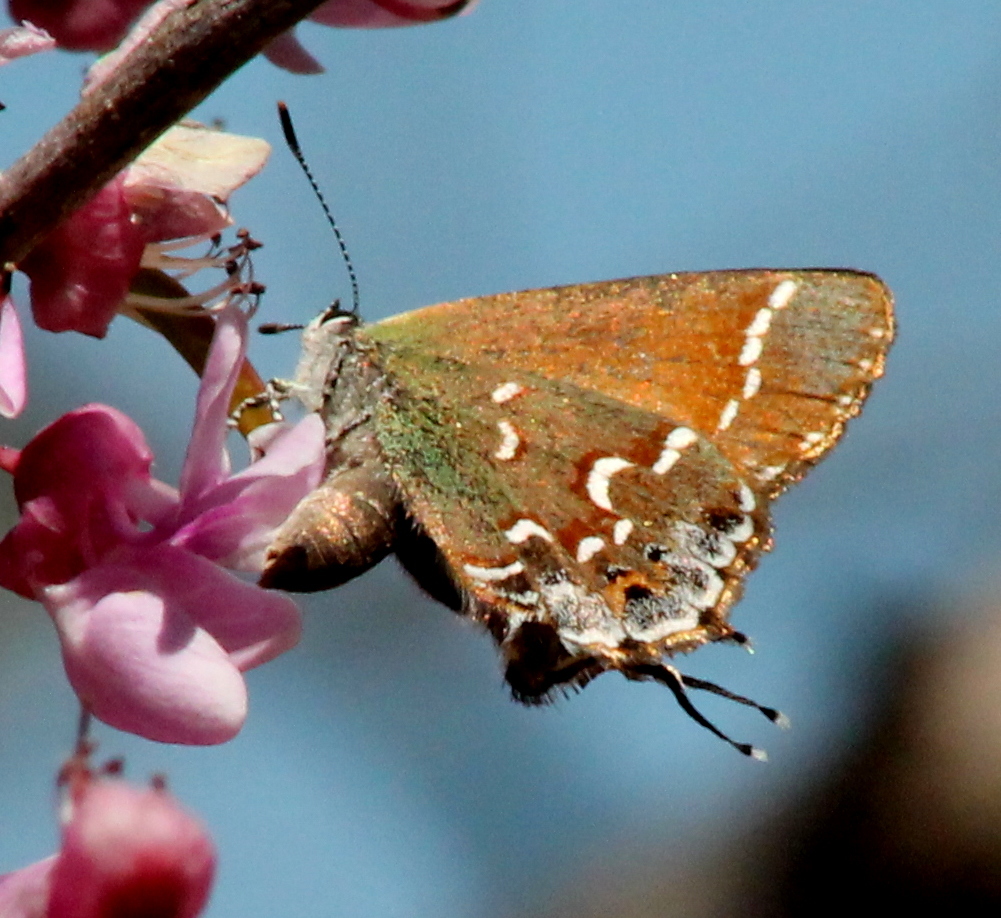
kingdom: Animalia
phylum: Arthropoda
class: Insecta
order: Lepidoptera
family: Lycaenidae
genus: Mitoura
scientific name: Mitoura gryneus
